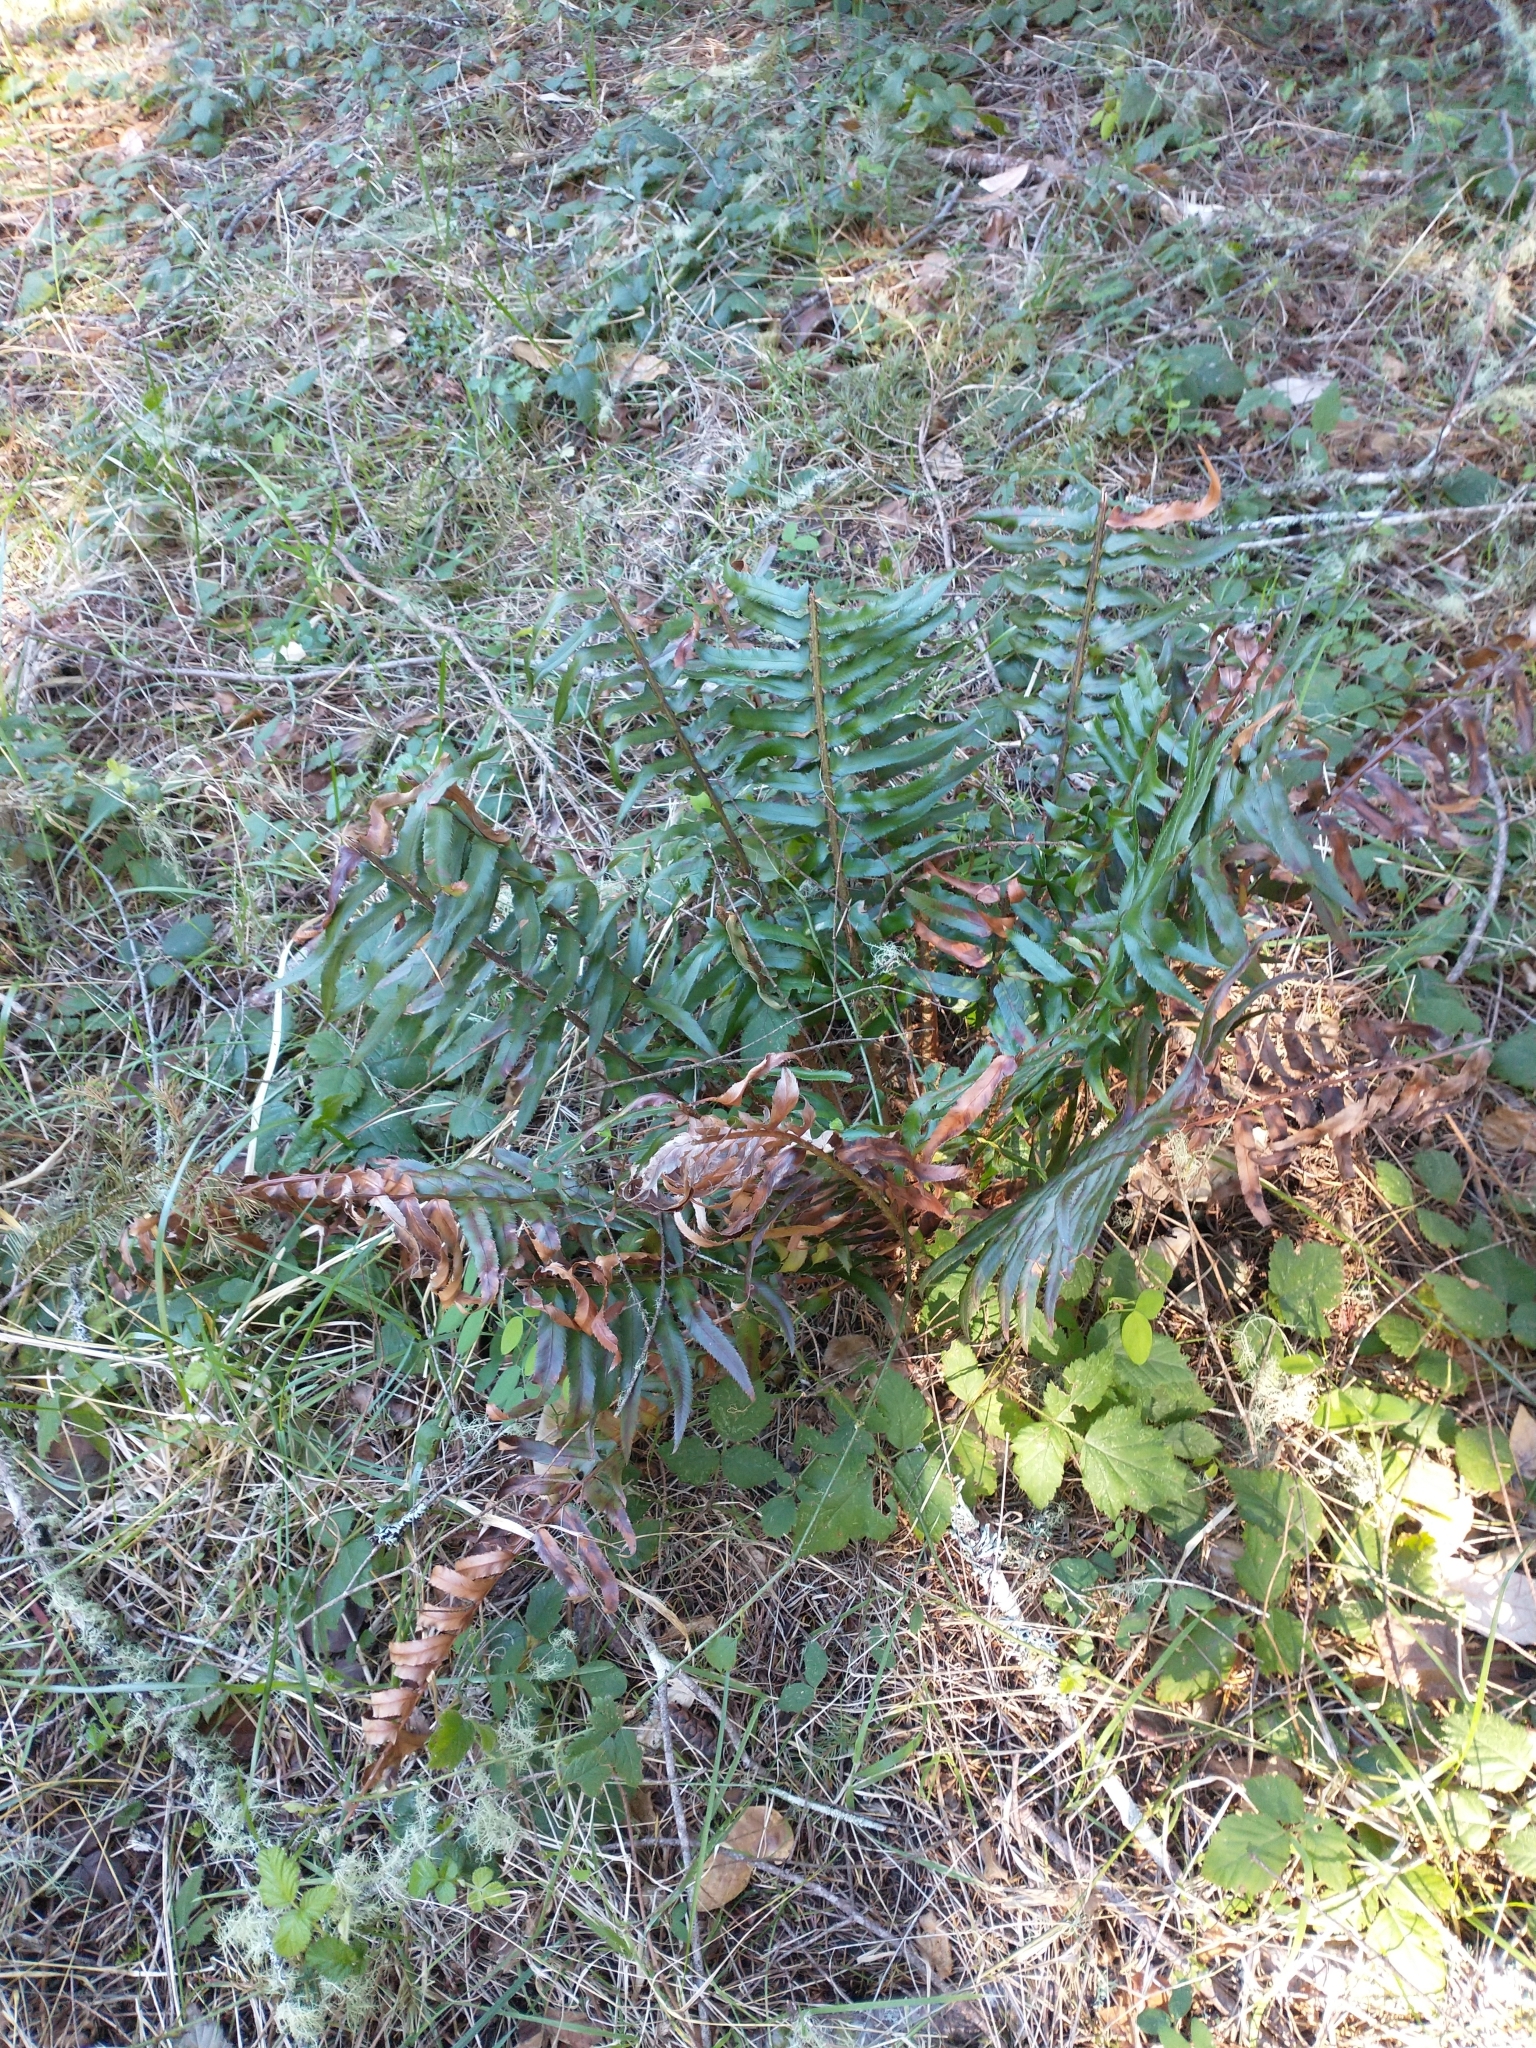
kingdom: Plantae
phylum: Tracheophyta
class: Polypodiopsida
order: Polypodiales
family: Dryopteridaceae
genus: Polystichum
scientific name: Polystichum munitum
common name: Western sword-fern
